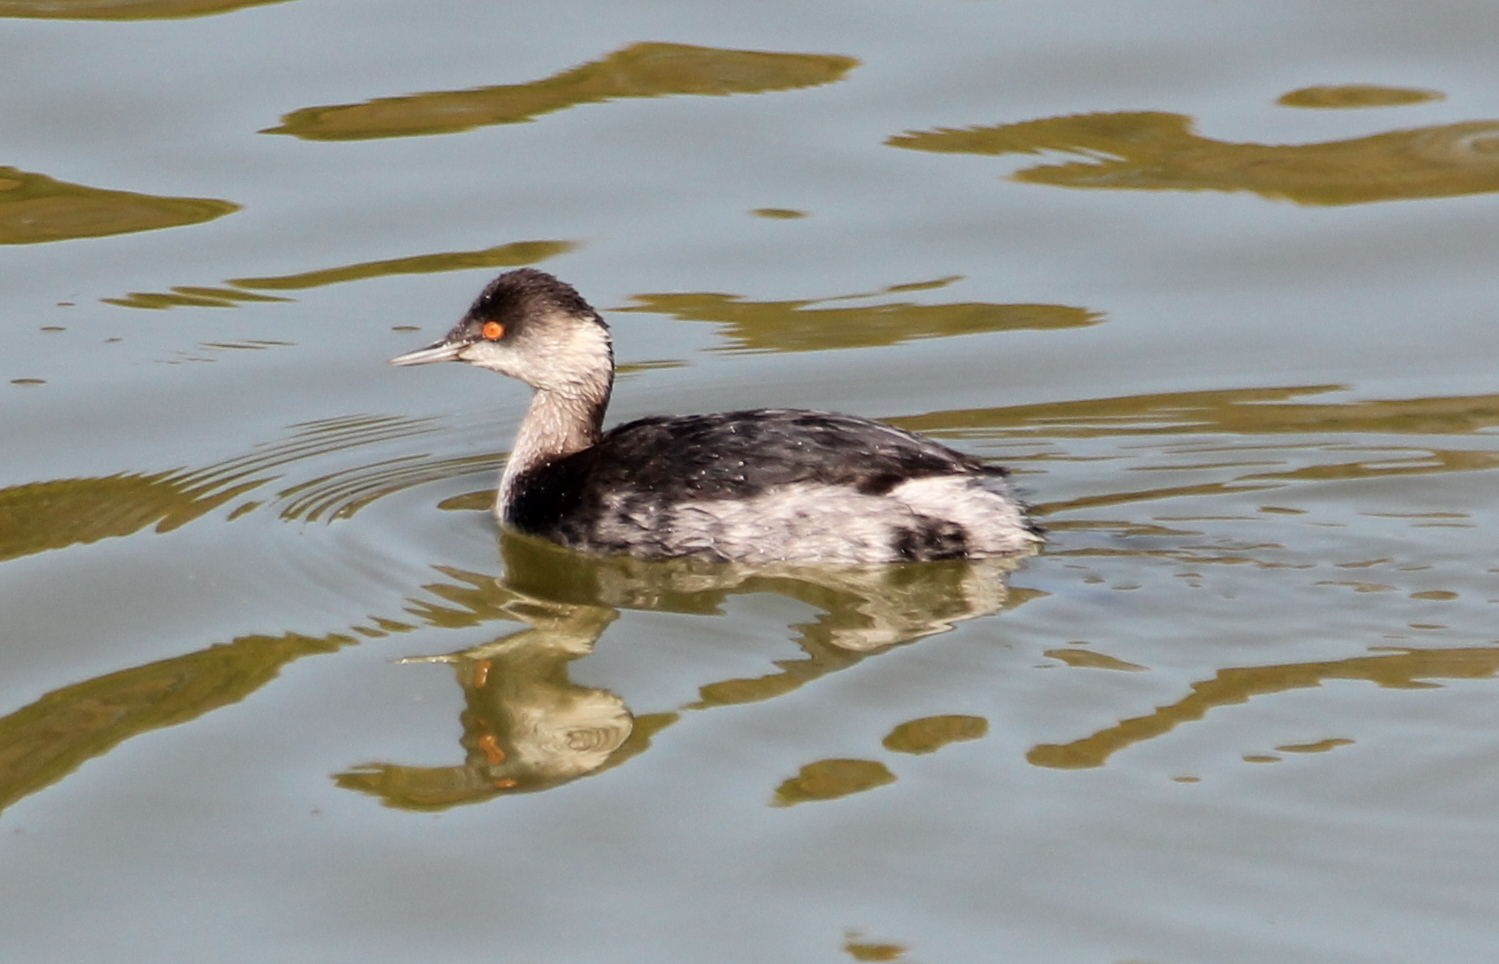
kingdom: Animalia
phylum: Chordata
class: Aves
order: Podicipediformes
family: Podicipedidae
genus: Podiceps
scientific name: Podiceps nigricollis
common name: Black-necked grebe
